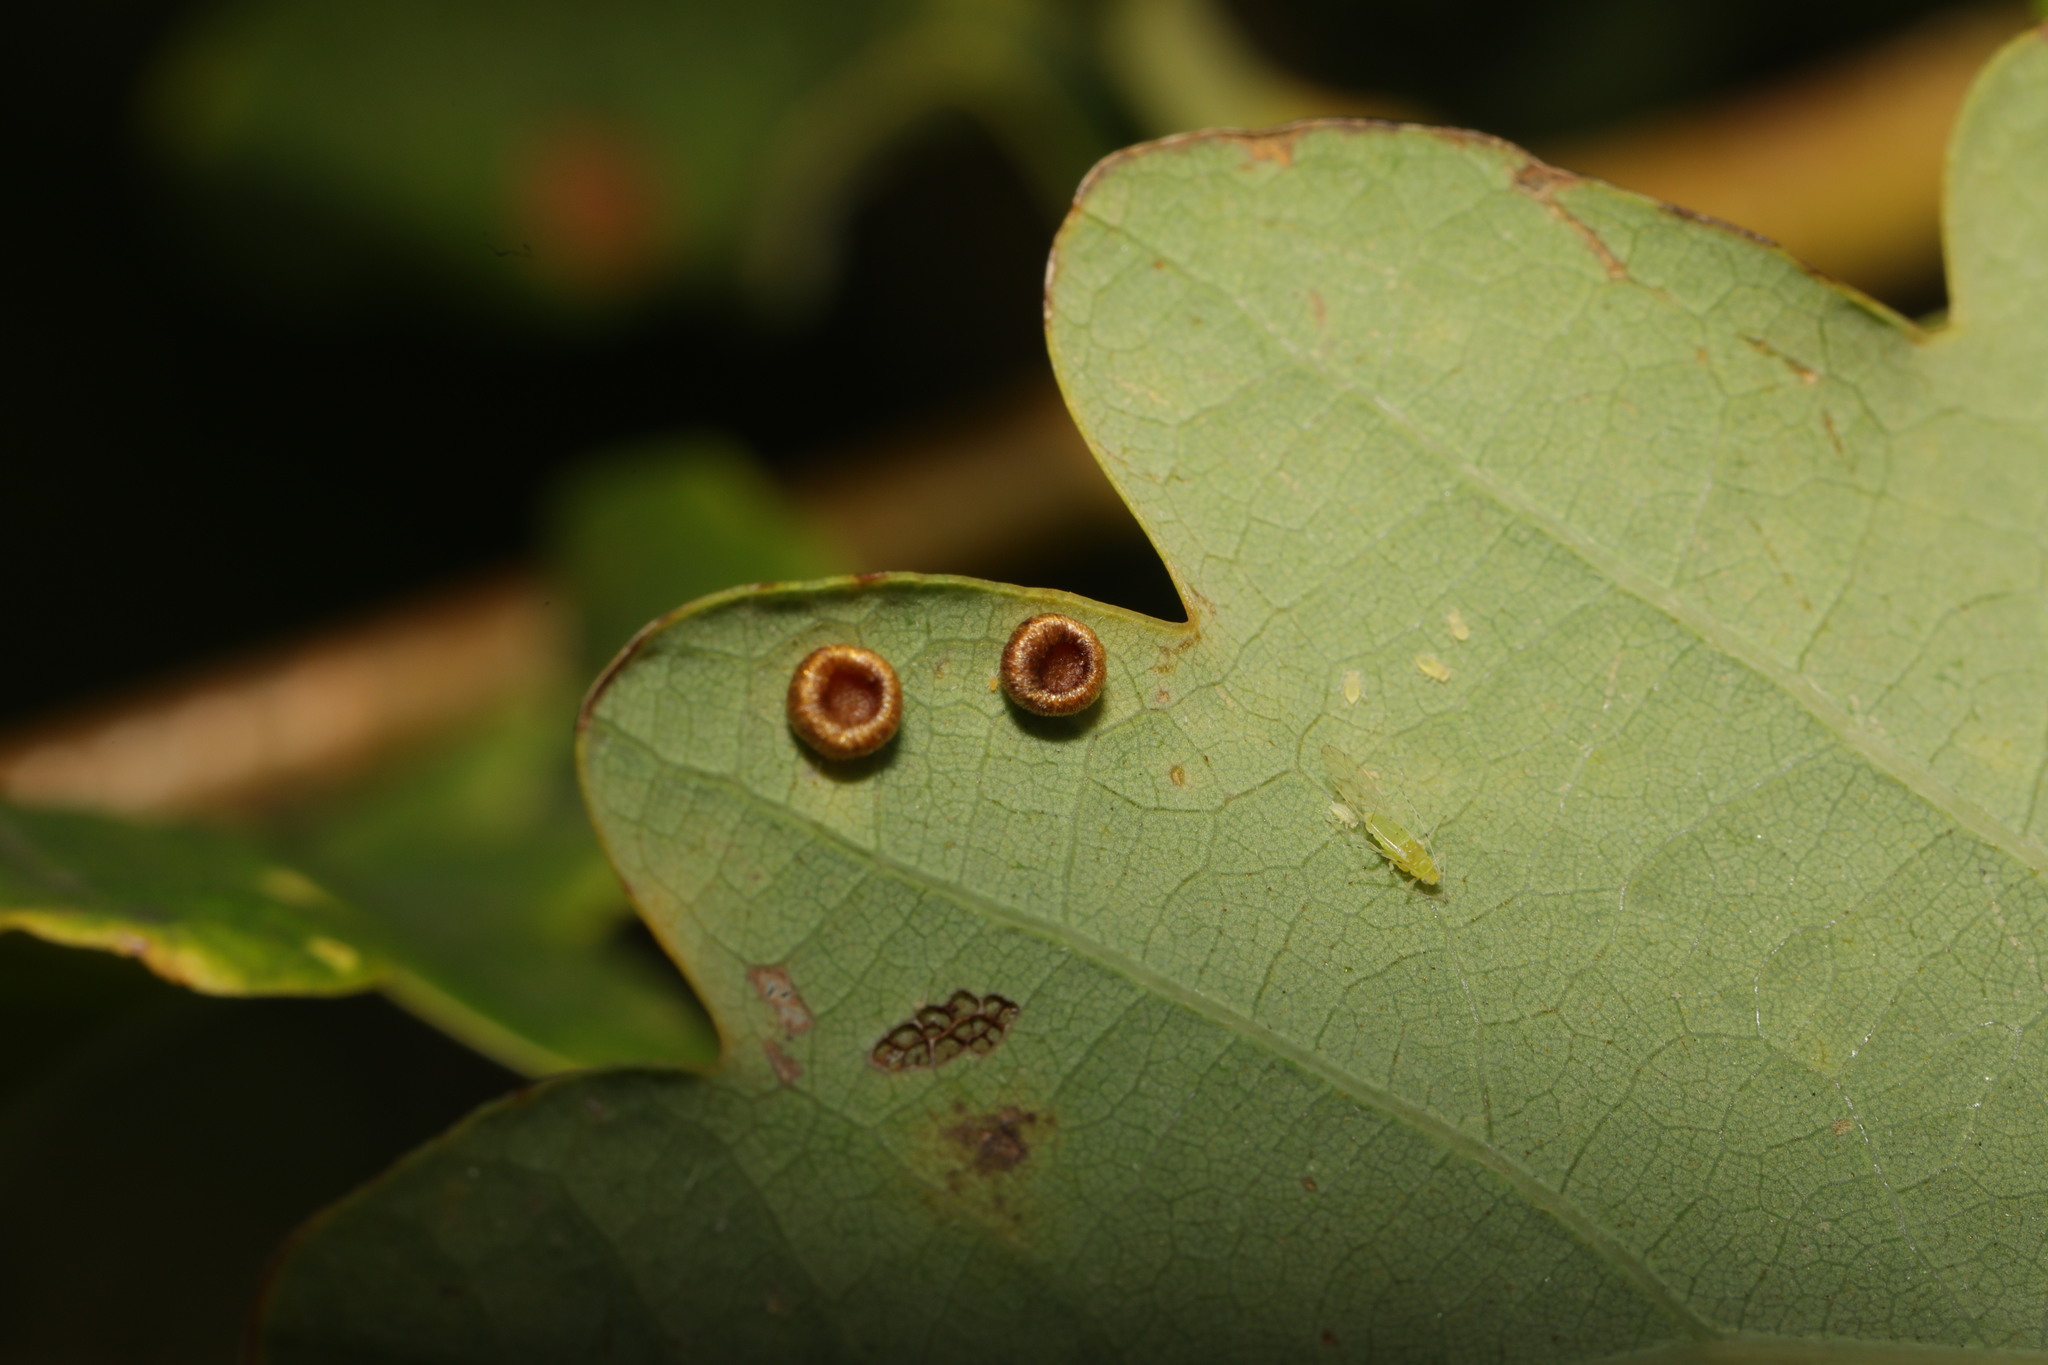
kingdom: Animalia
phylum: Arthropoda
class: Insecta
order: Hymenoptera
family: Cynipidae
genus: Neuroterus
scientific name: Neuroterus numismalis
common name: Silk-button spangle gall
